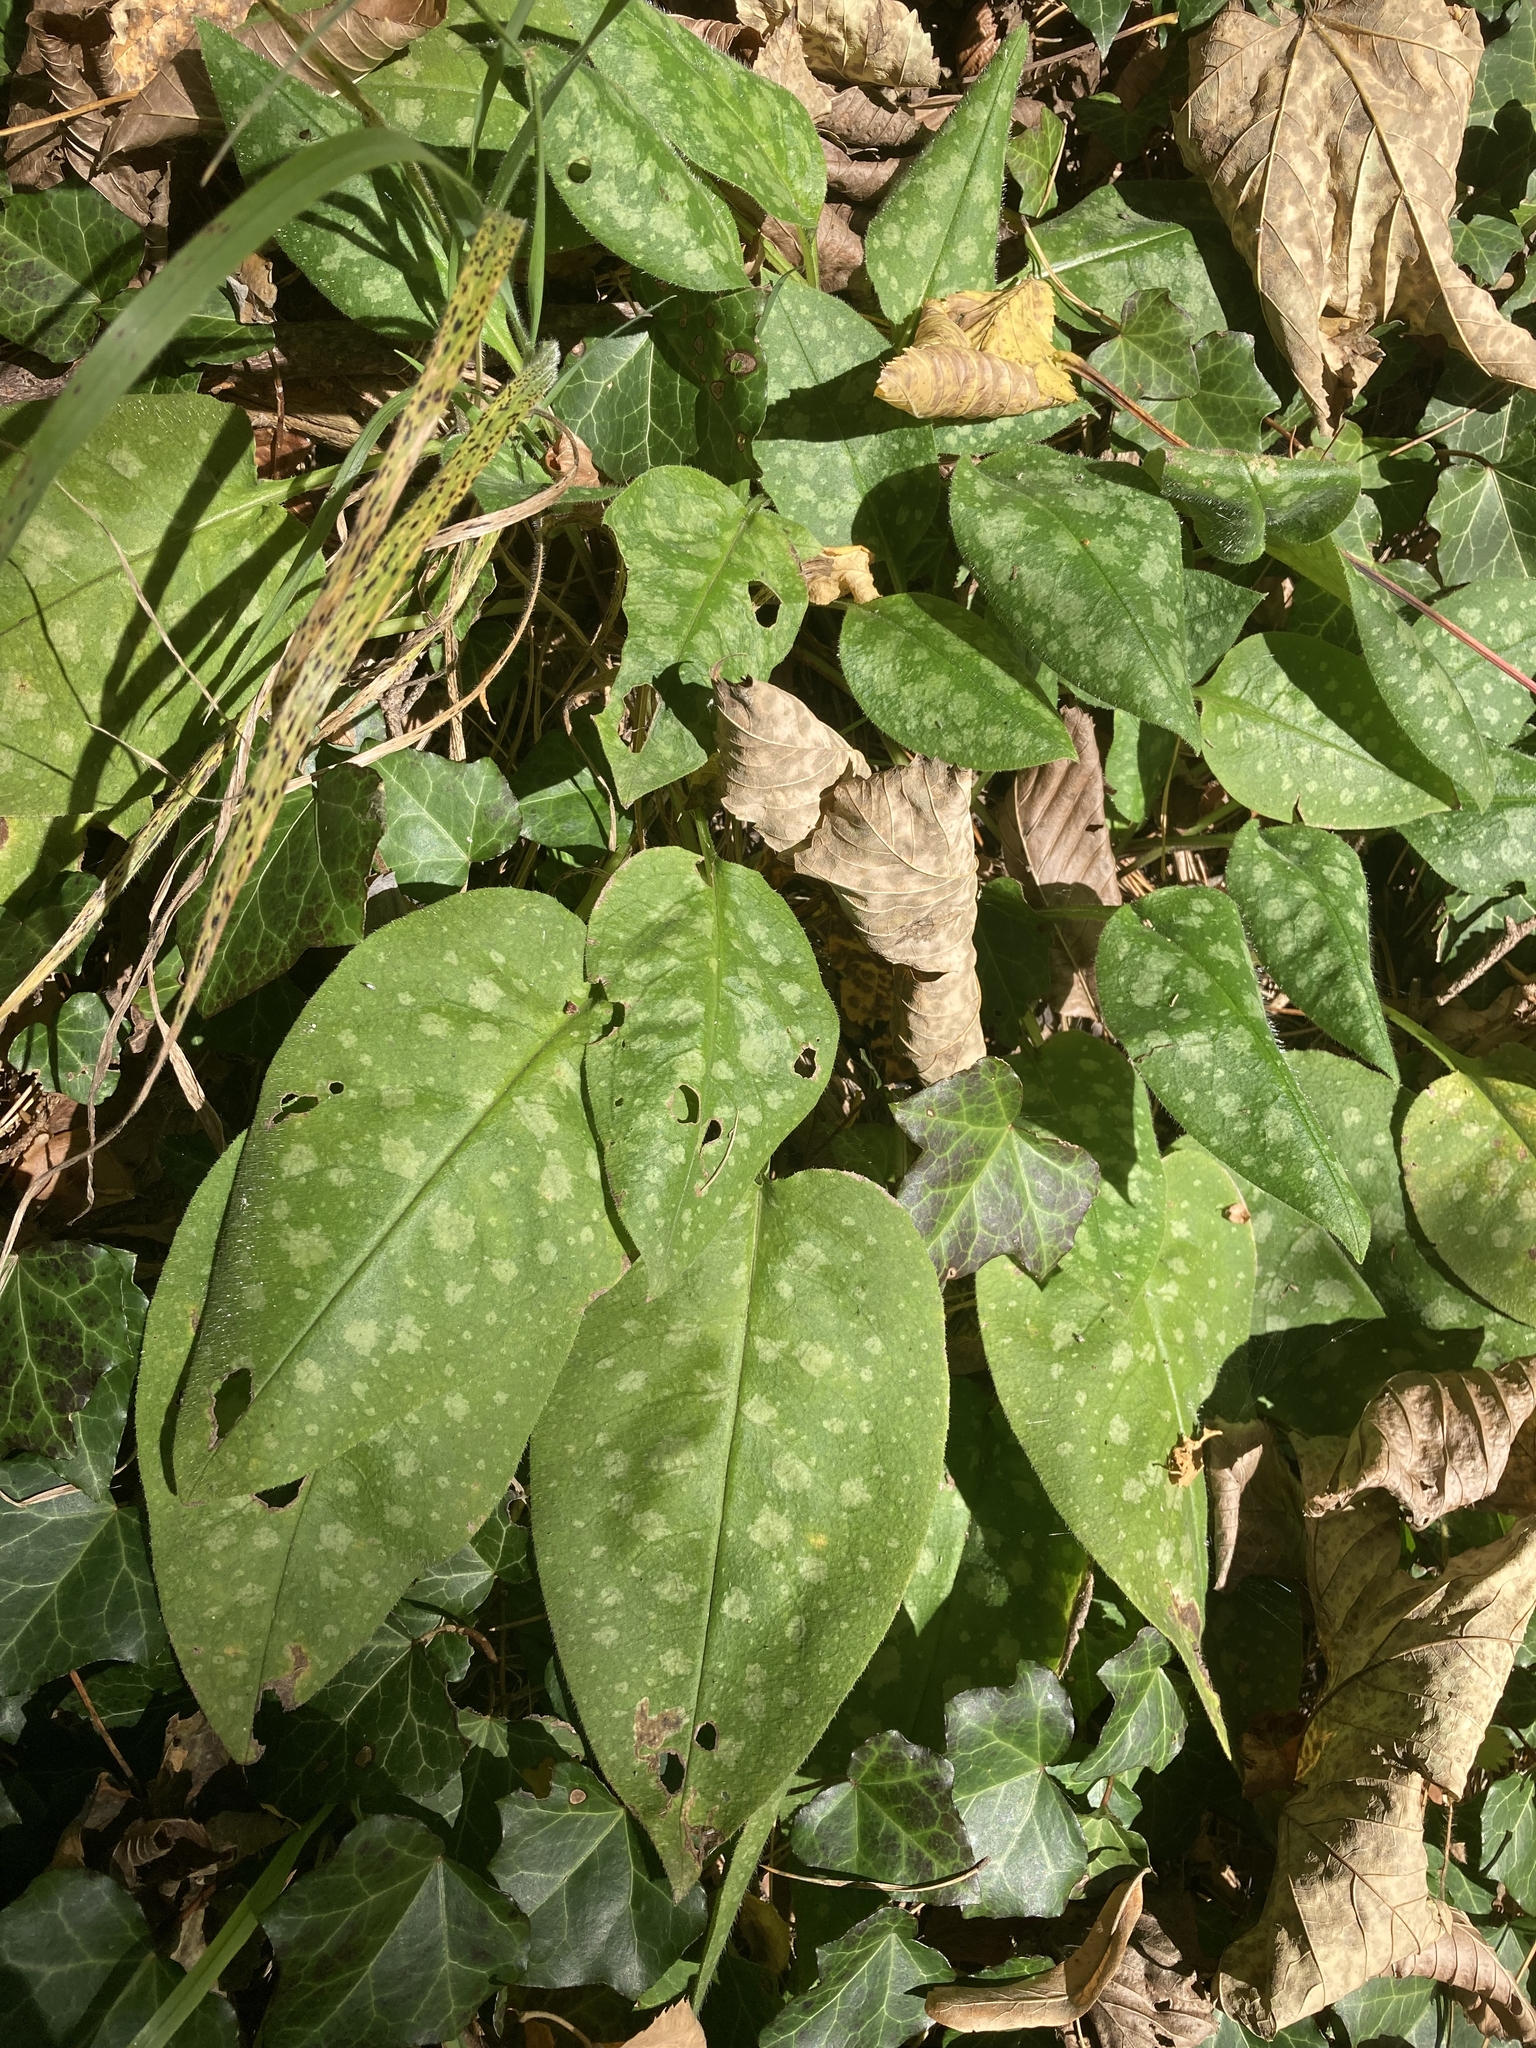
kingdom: Plantae
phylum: Tracheophyta
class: Magnoliopsida
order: Boraginales
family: Boraginaceae
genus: Pulmonaria
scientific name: Pulmonaria officinalis
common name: Lungwort
